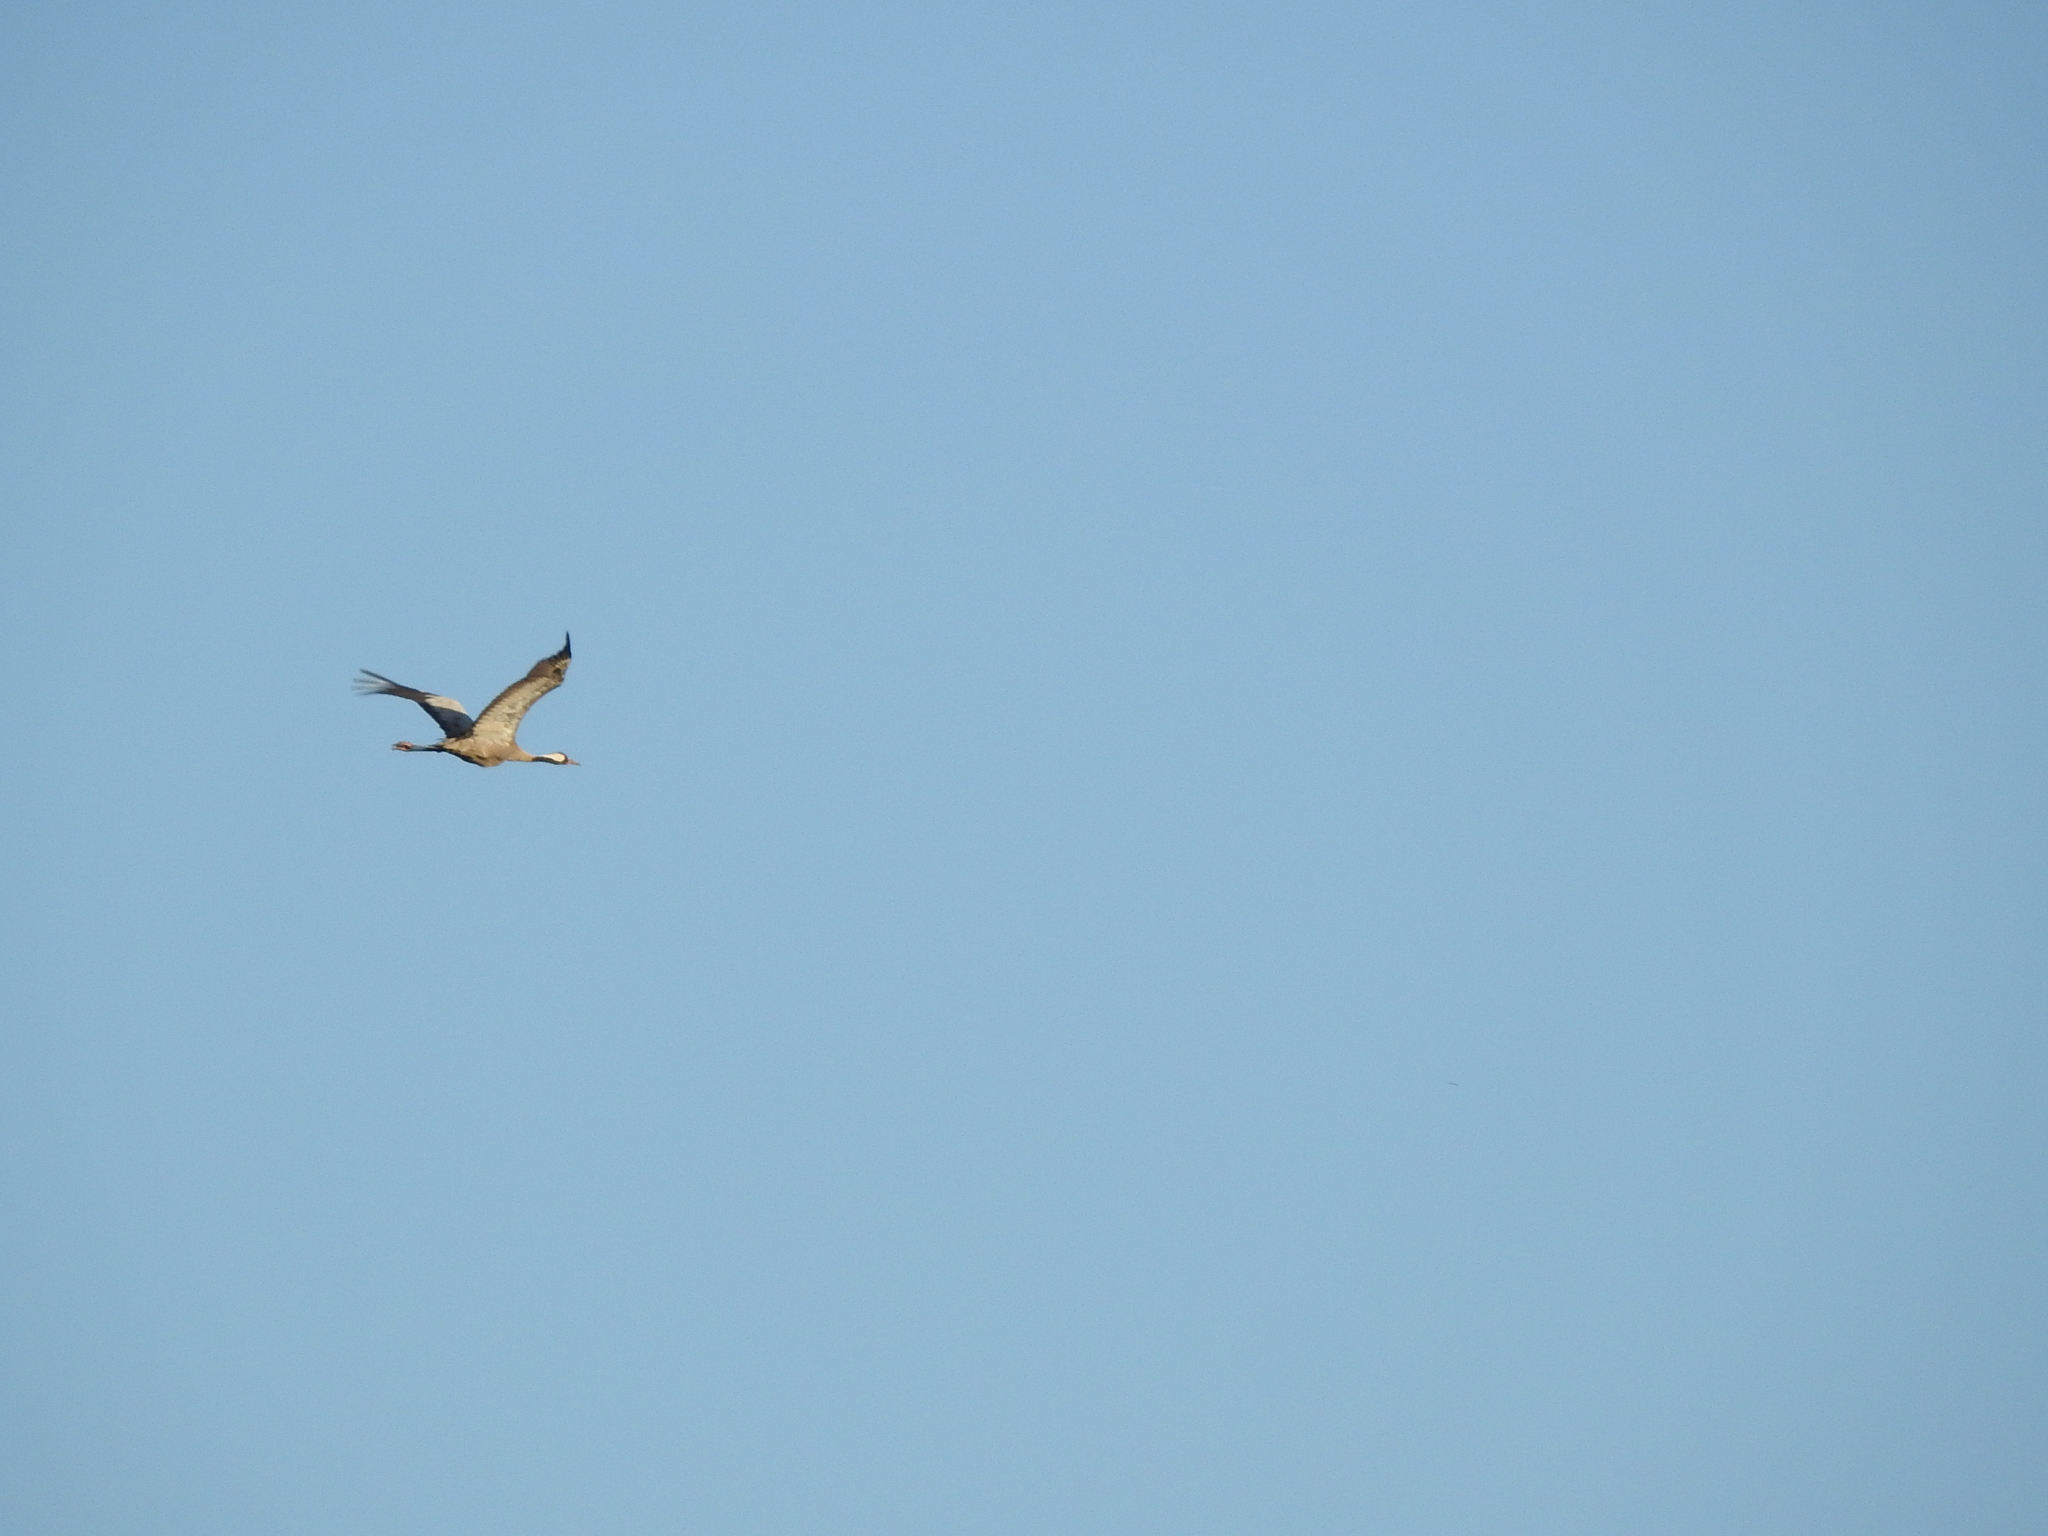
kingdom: Animalia
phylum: Chordata
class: Aves
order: Gruiformes
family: Gruidae
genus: Grus
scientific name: Grus grus
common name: Common crane
